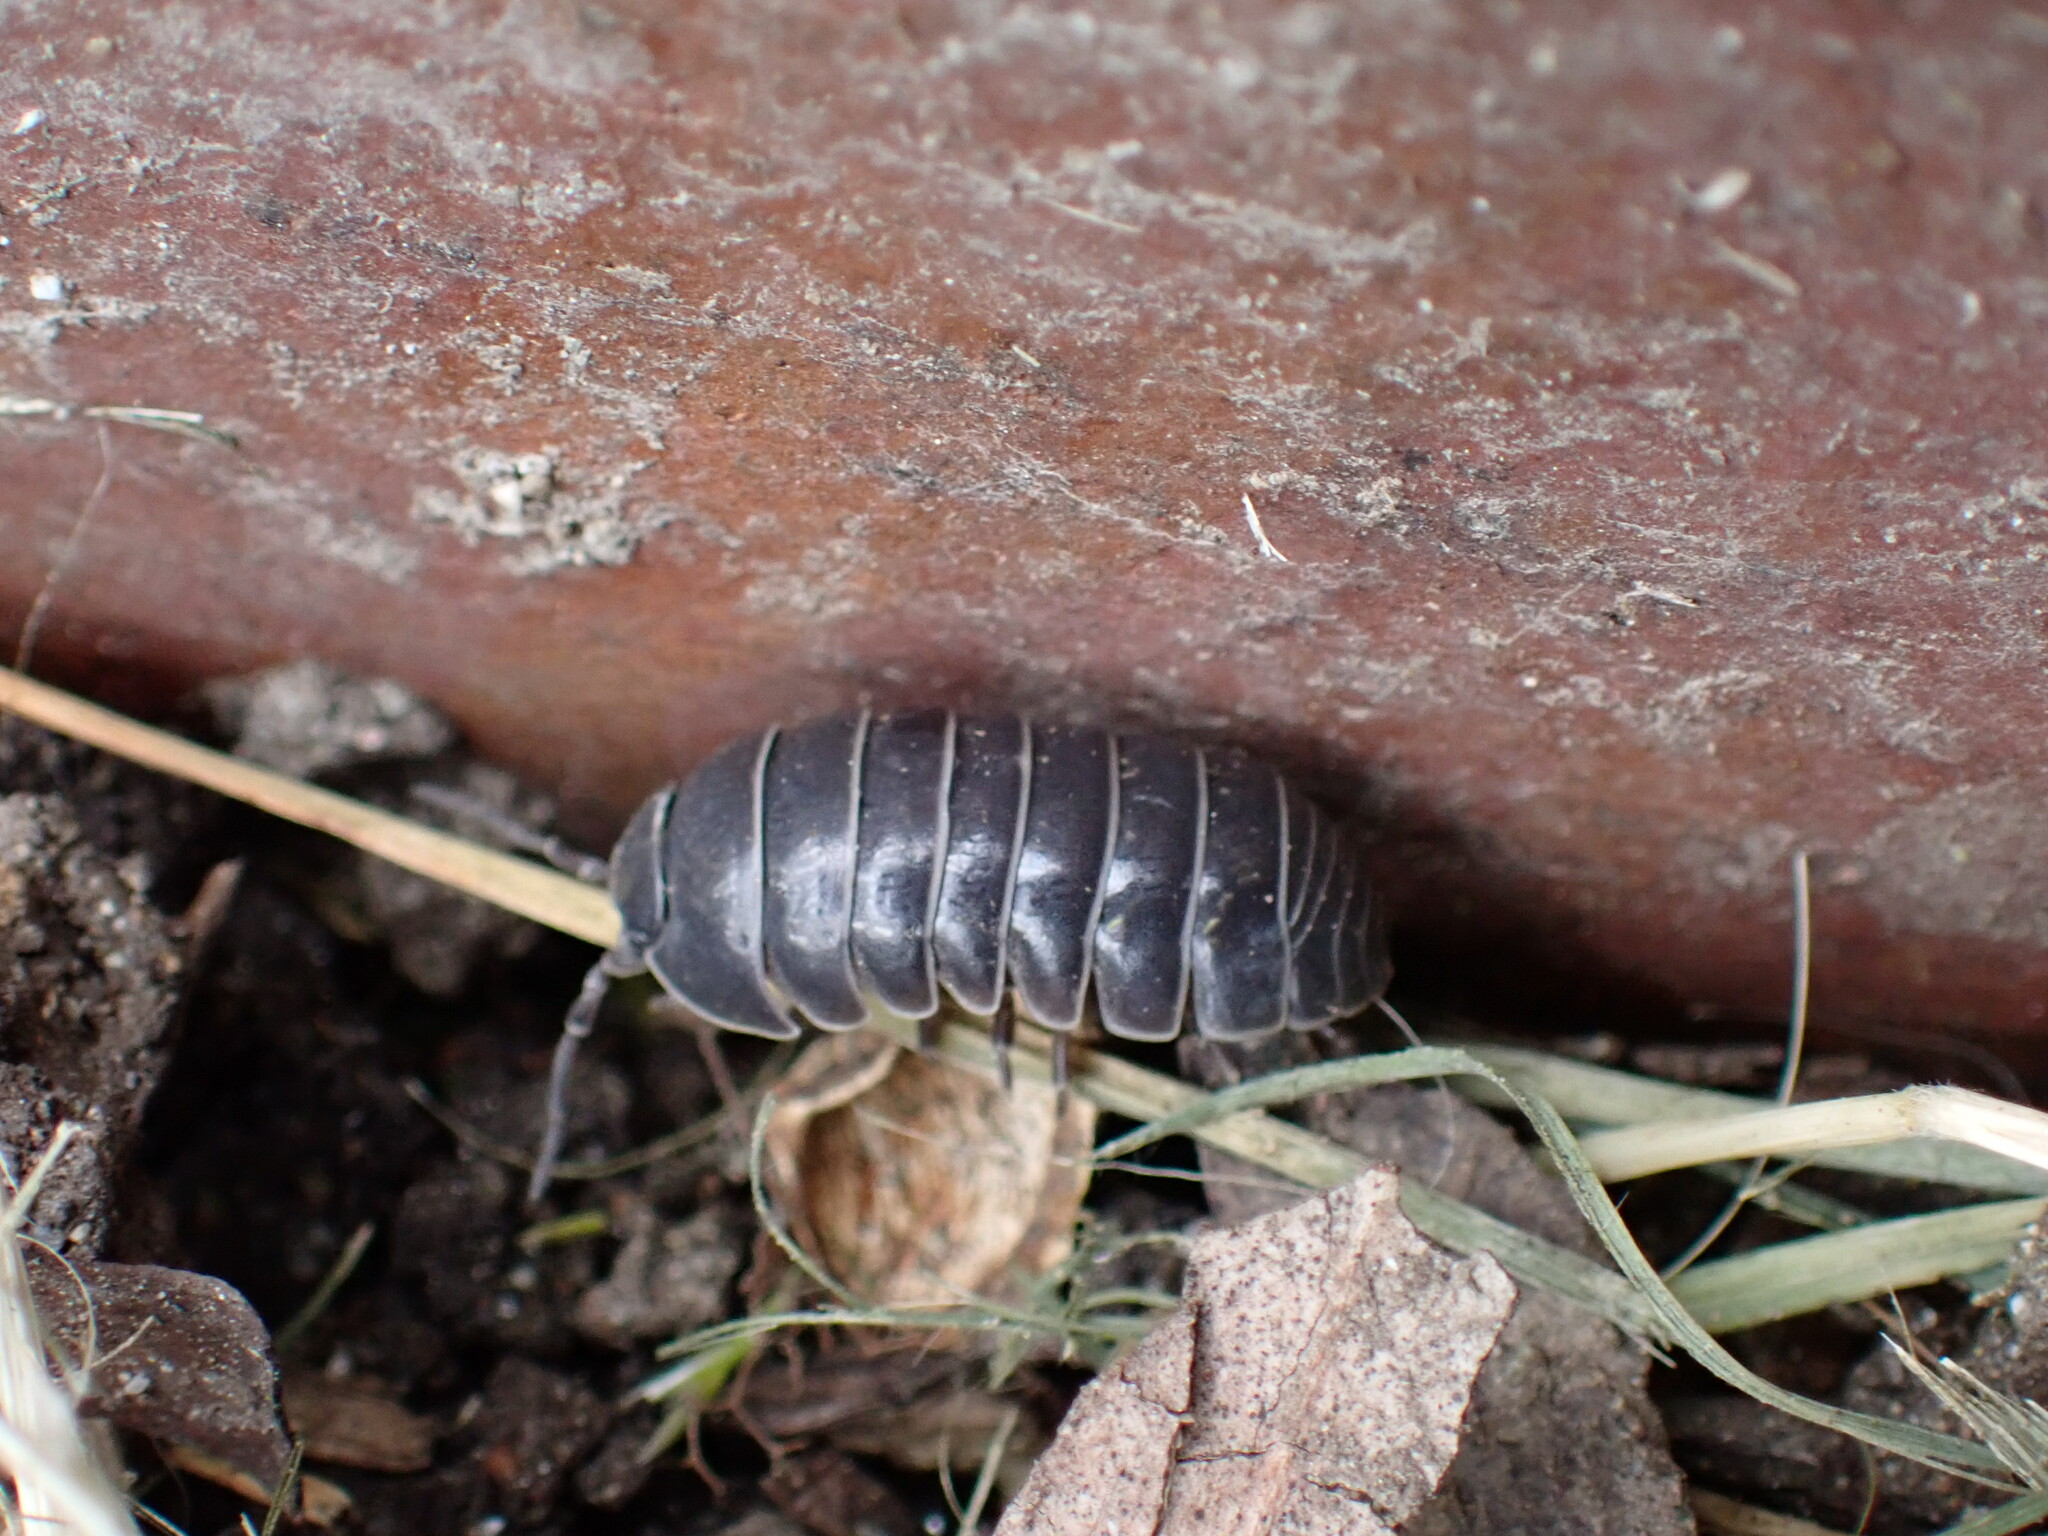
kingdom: Animalia
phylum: Arthropoda
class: Malacostraca
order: Isopoda
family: Armadillidiidae
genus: Armadillidium
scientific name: Armadillidium vulgare
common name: Common pill woodlouse
